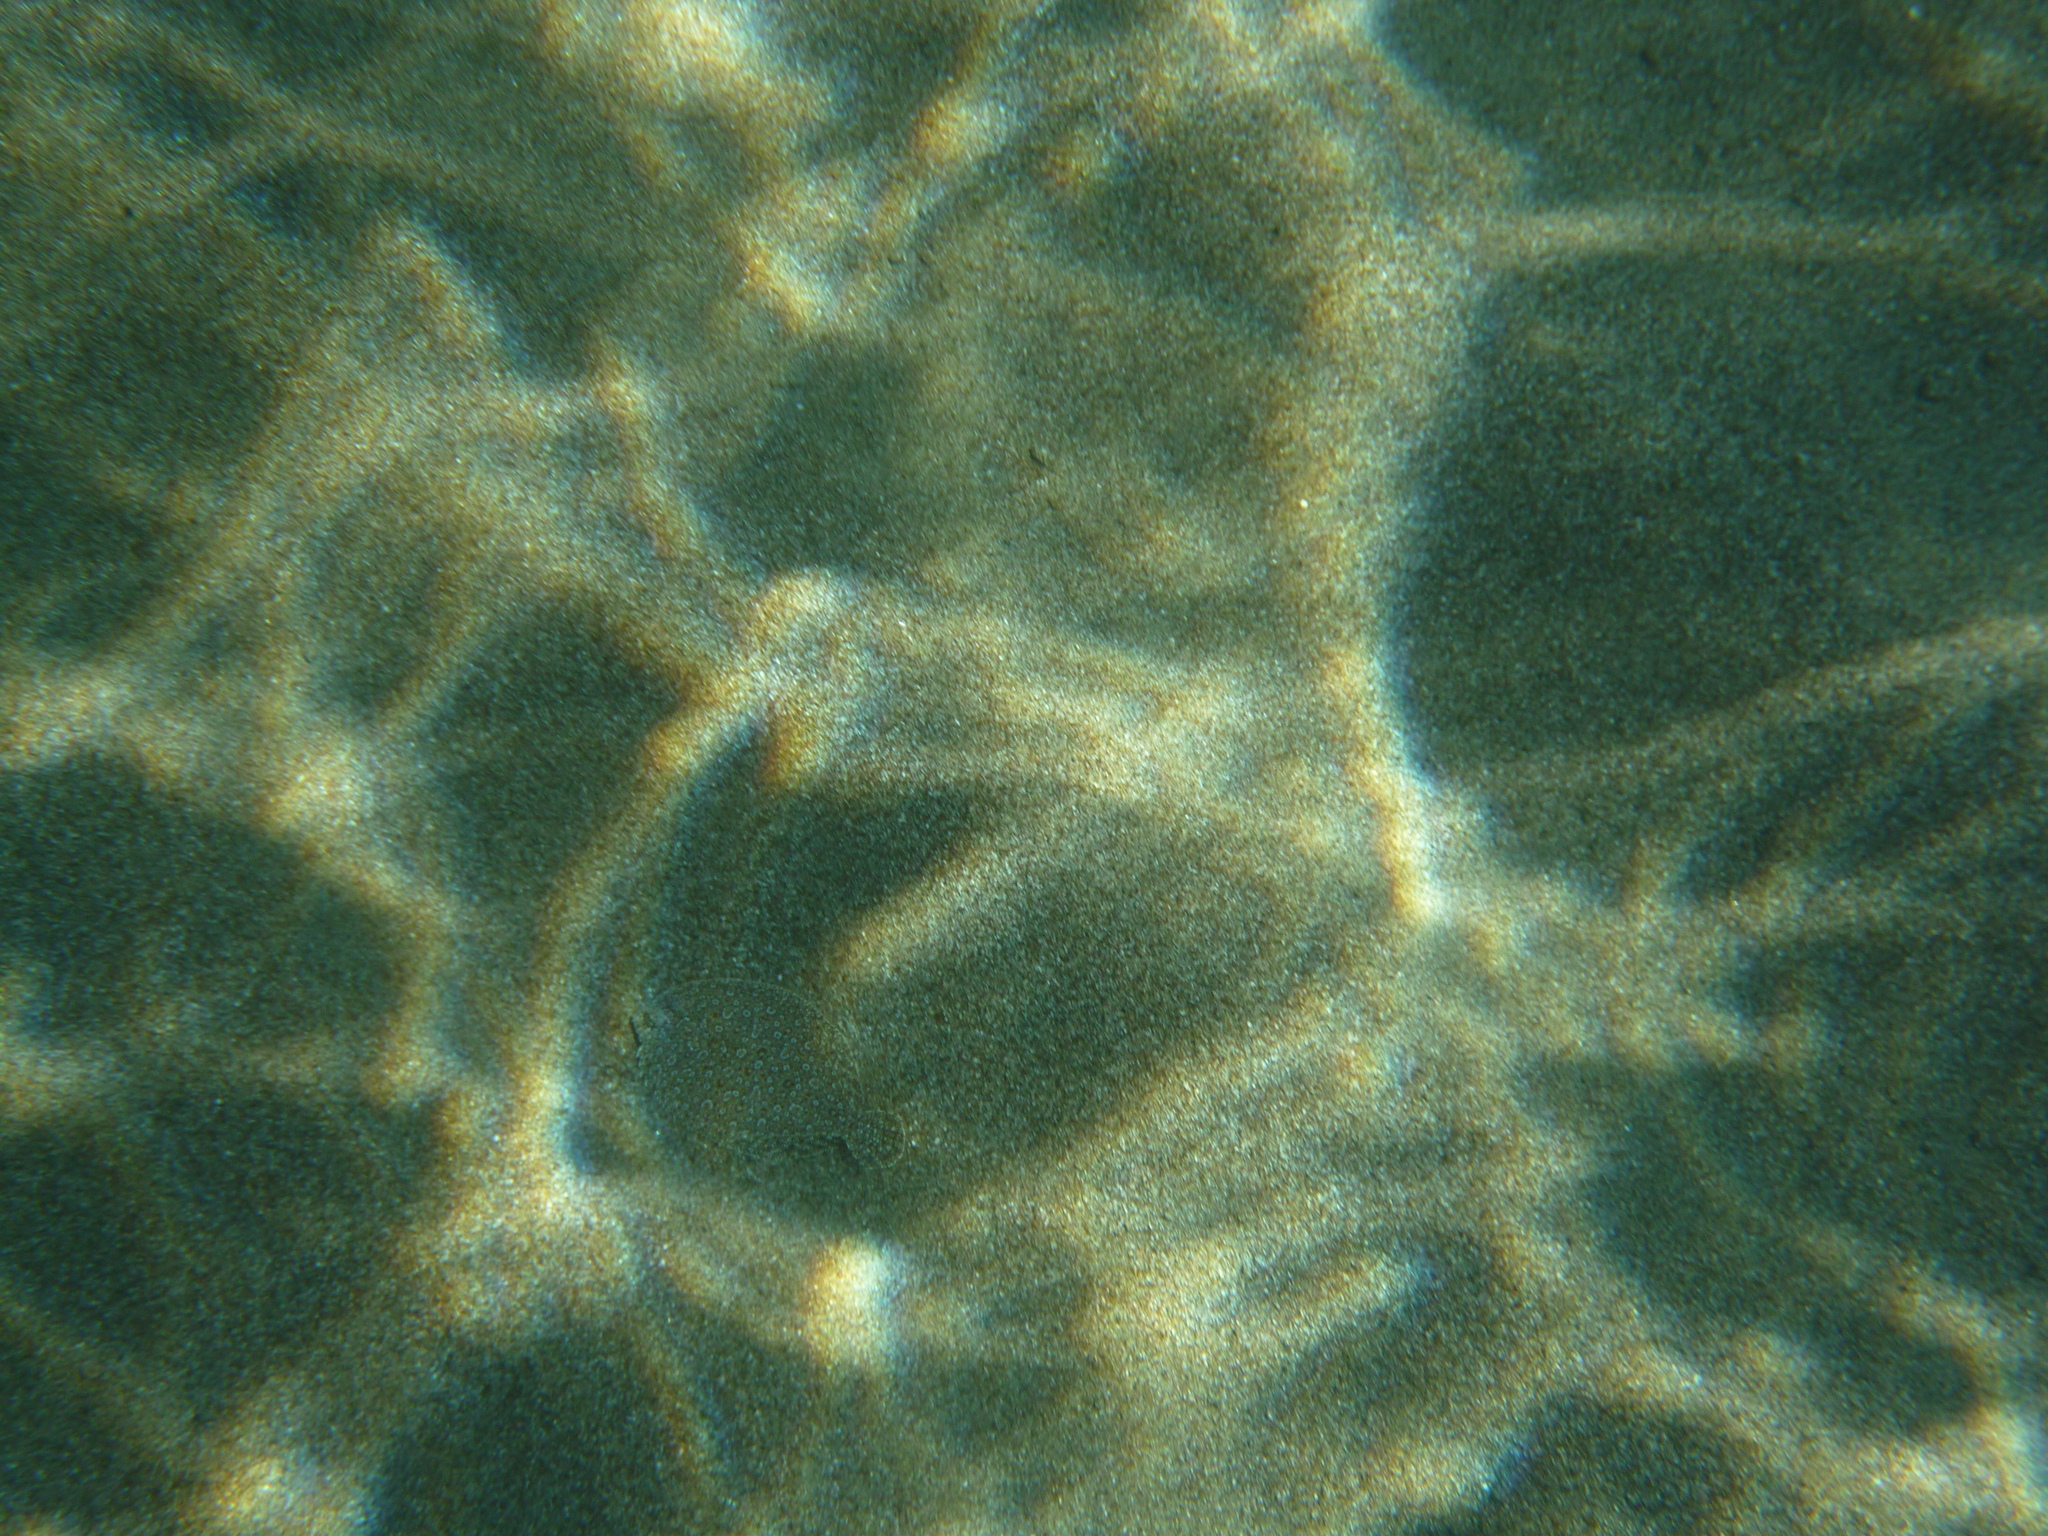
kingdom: Animalia
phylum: Chordata
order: Pleuronectiformes
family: Bothidae
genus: Bothus
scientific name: Bothus podas
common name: Wide-eyed flounder
